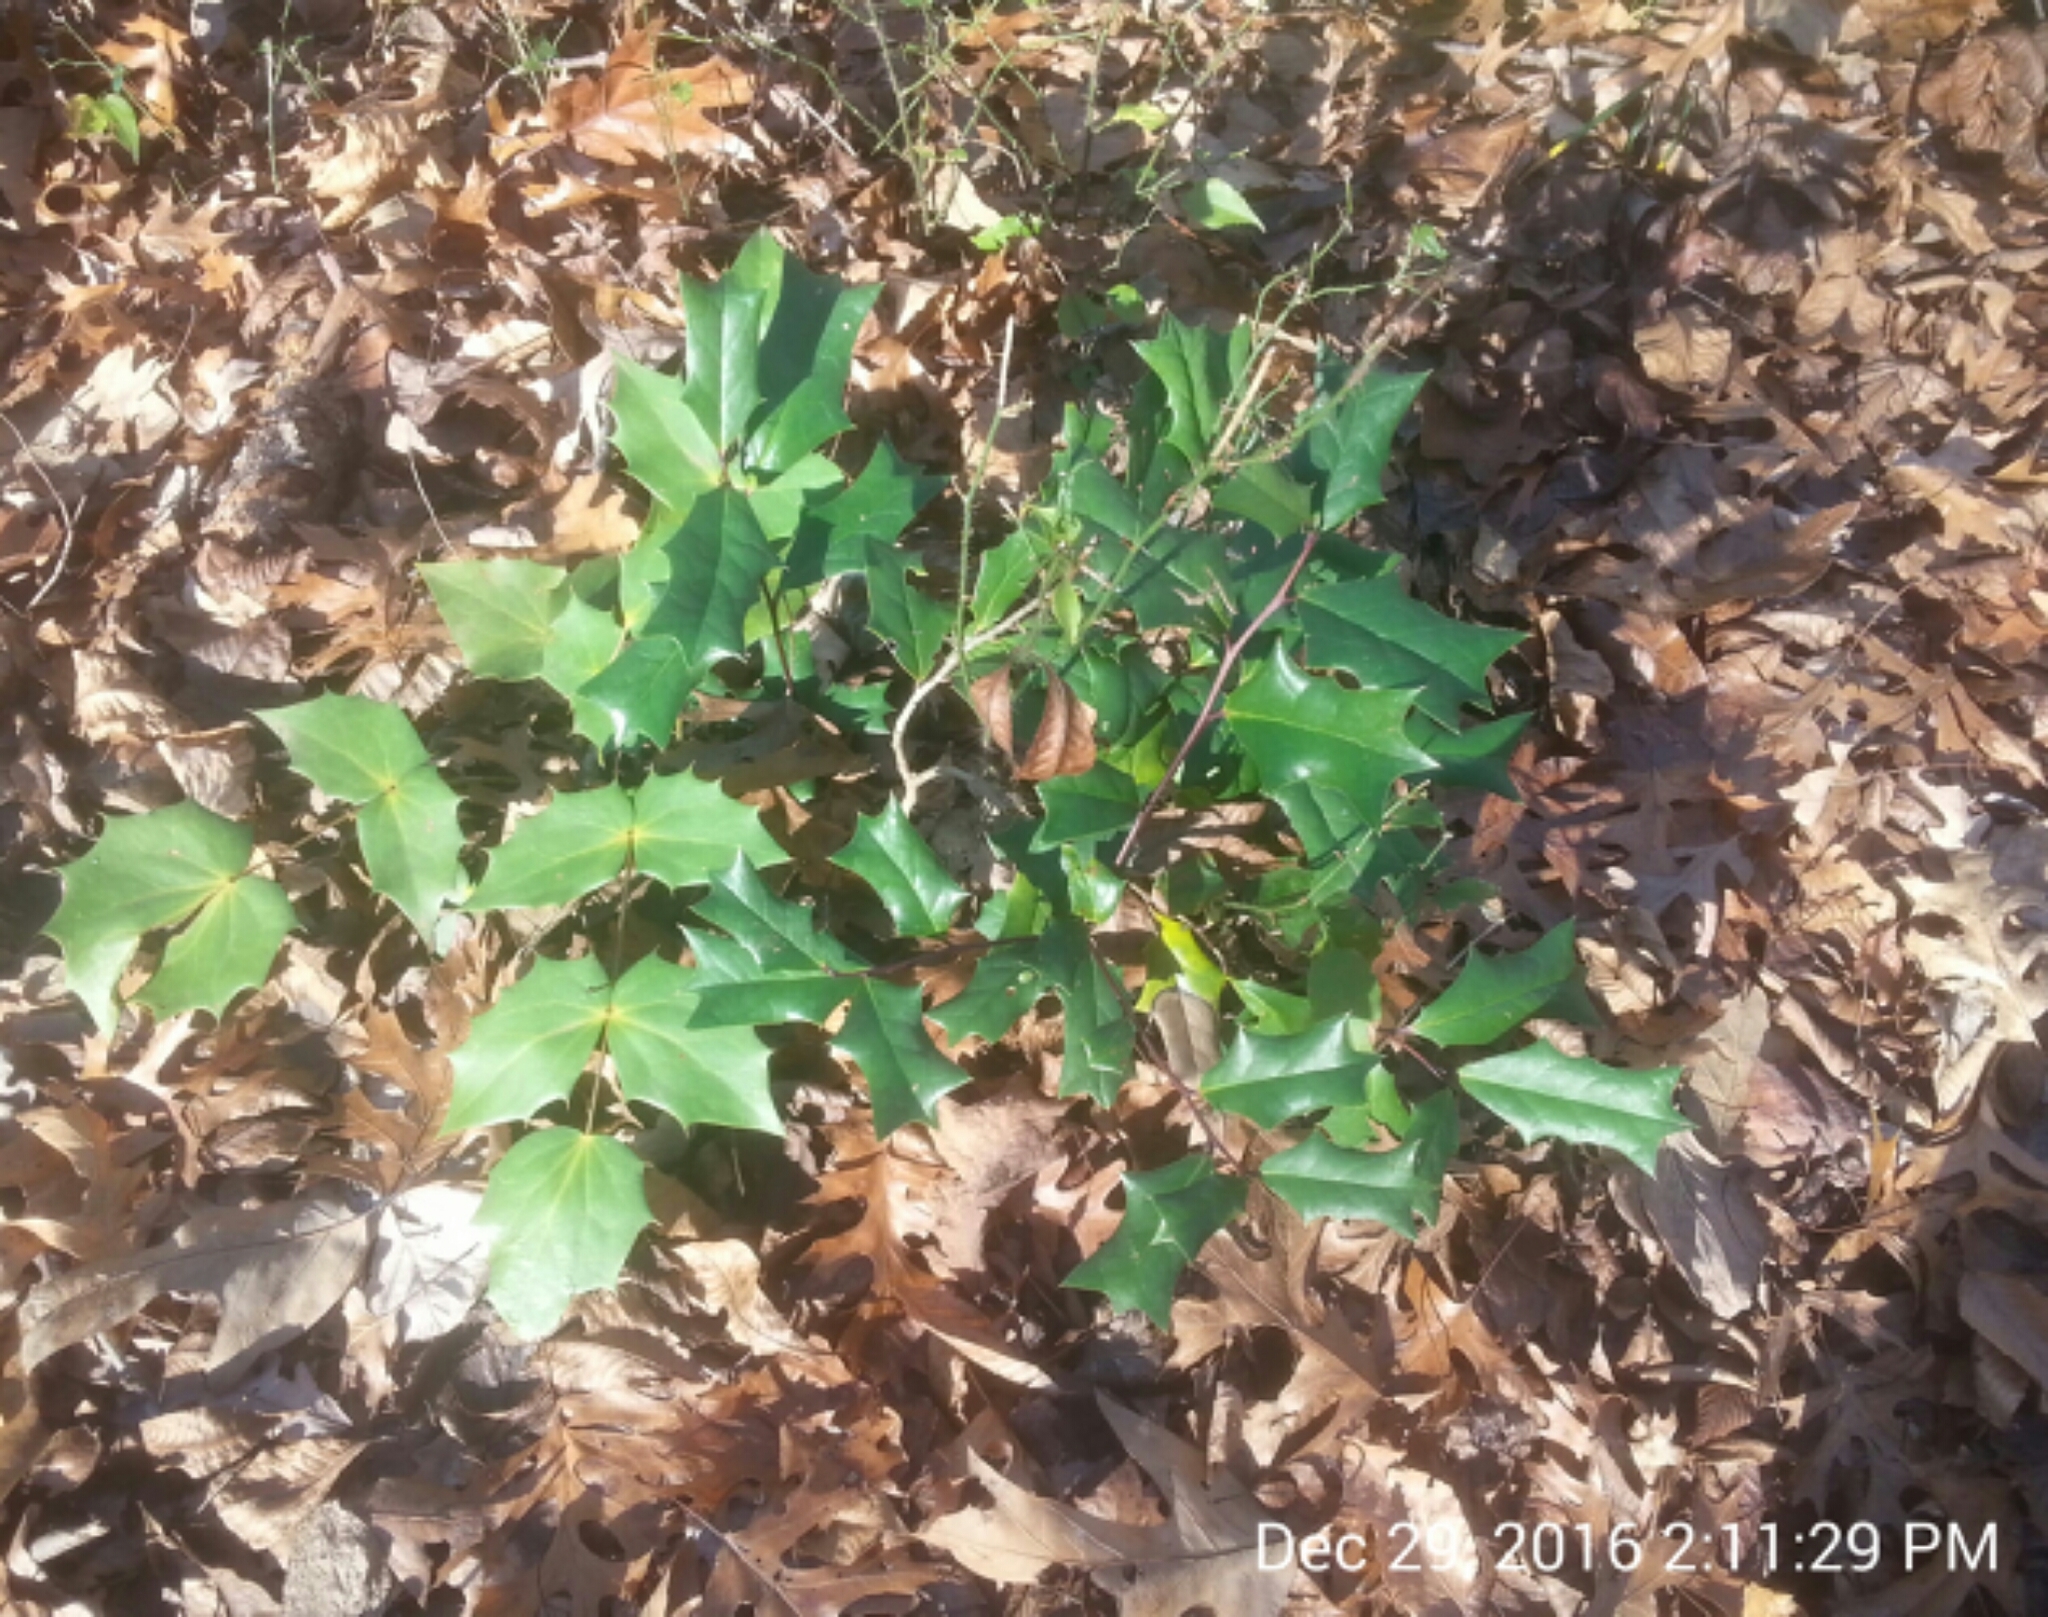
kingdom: Plantae
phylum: Tracheophyta
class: Magnoliopsida
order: Ranunculales
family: Berberidaceae
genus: Mahonia
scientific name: Mahonia bealei
